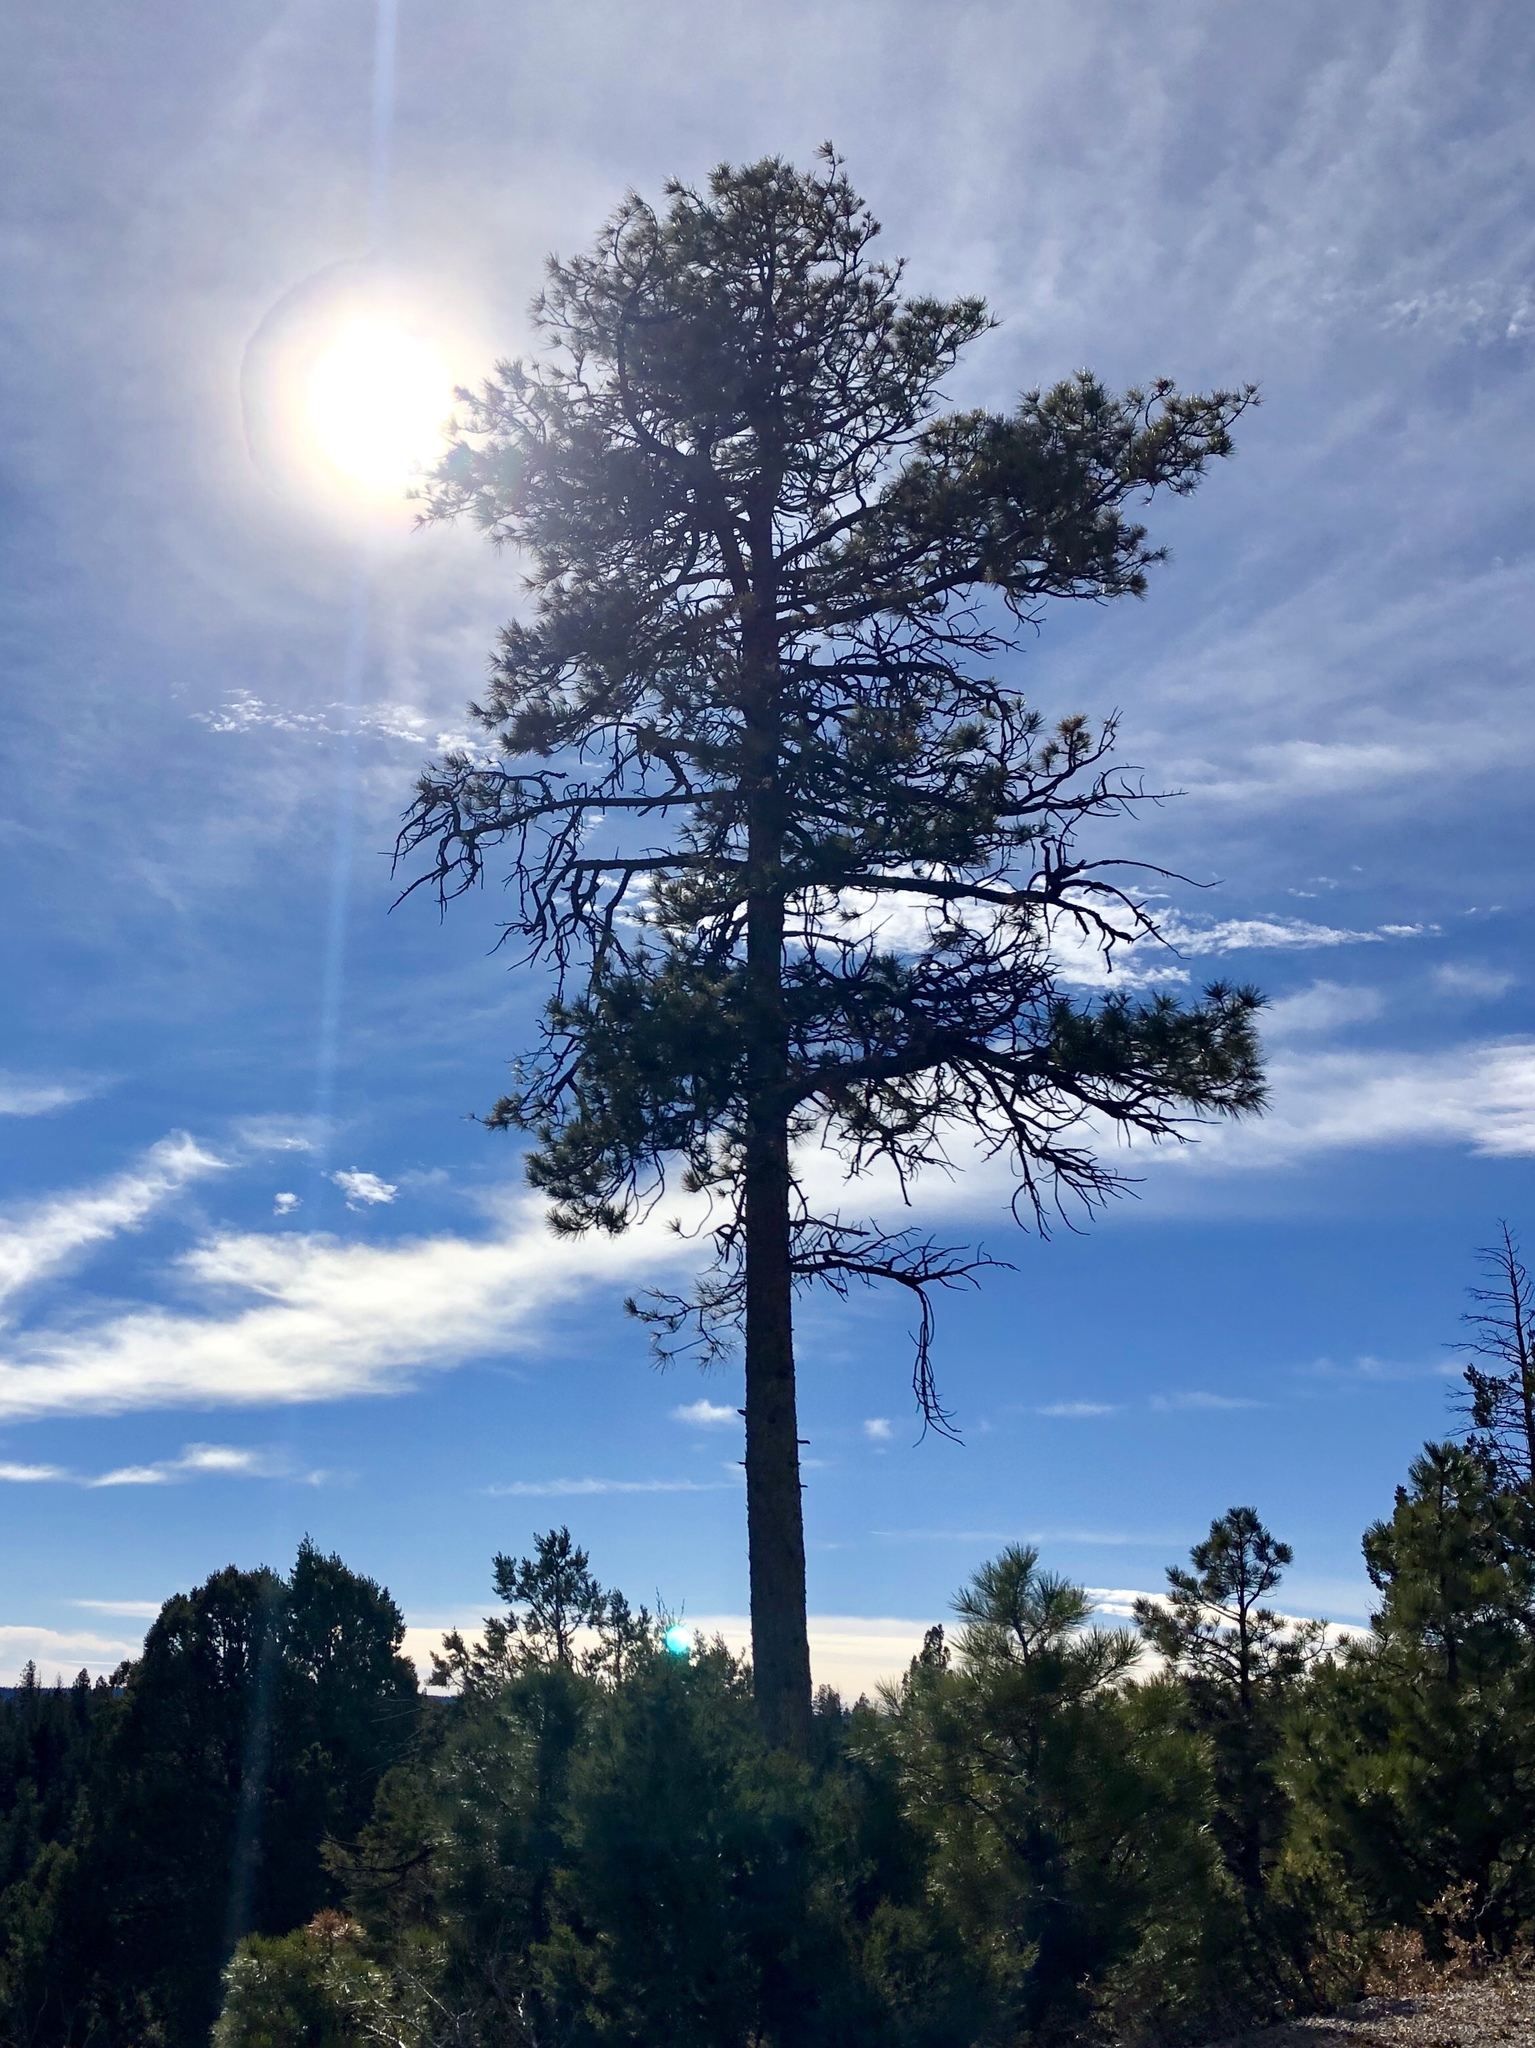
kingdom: Plantae
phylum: Tracheophyta
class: Pinopsida
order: Pinales
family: Pinaceae
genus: Pinus
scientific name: Pinus ponderosa
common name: Western yellow-pine
